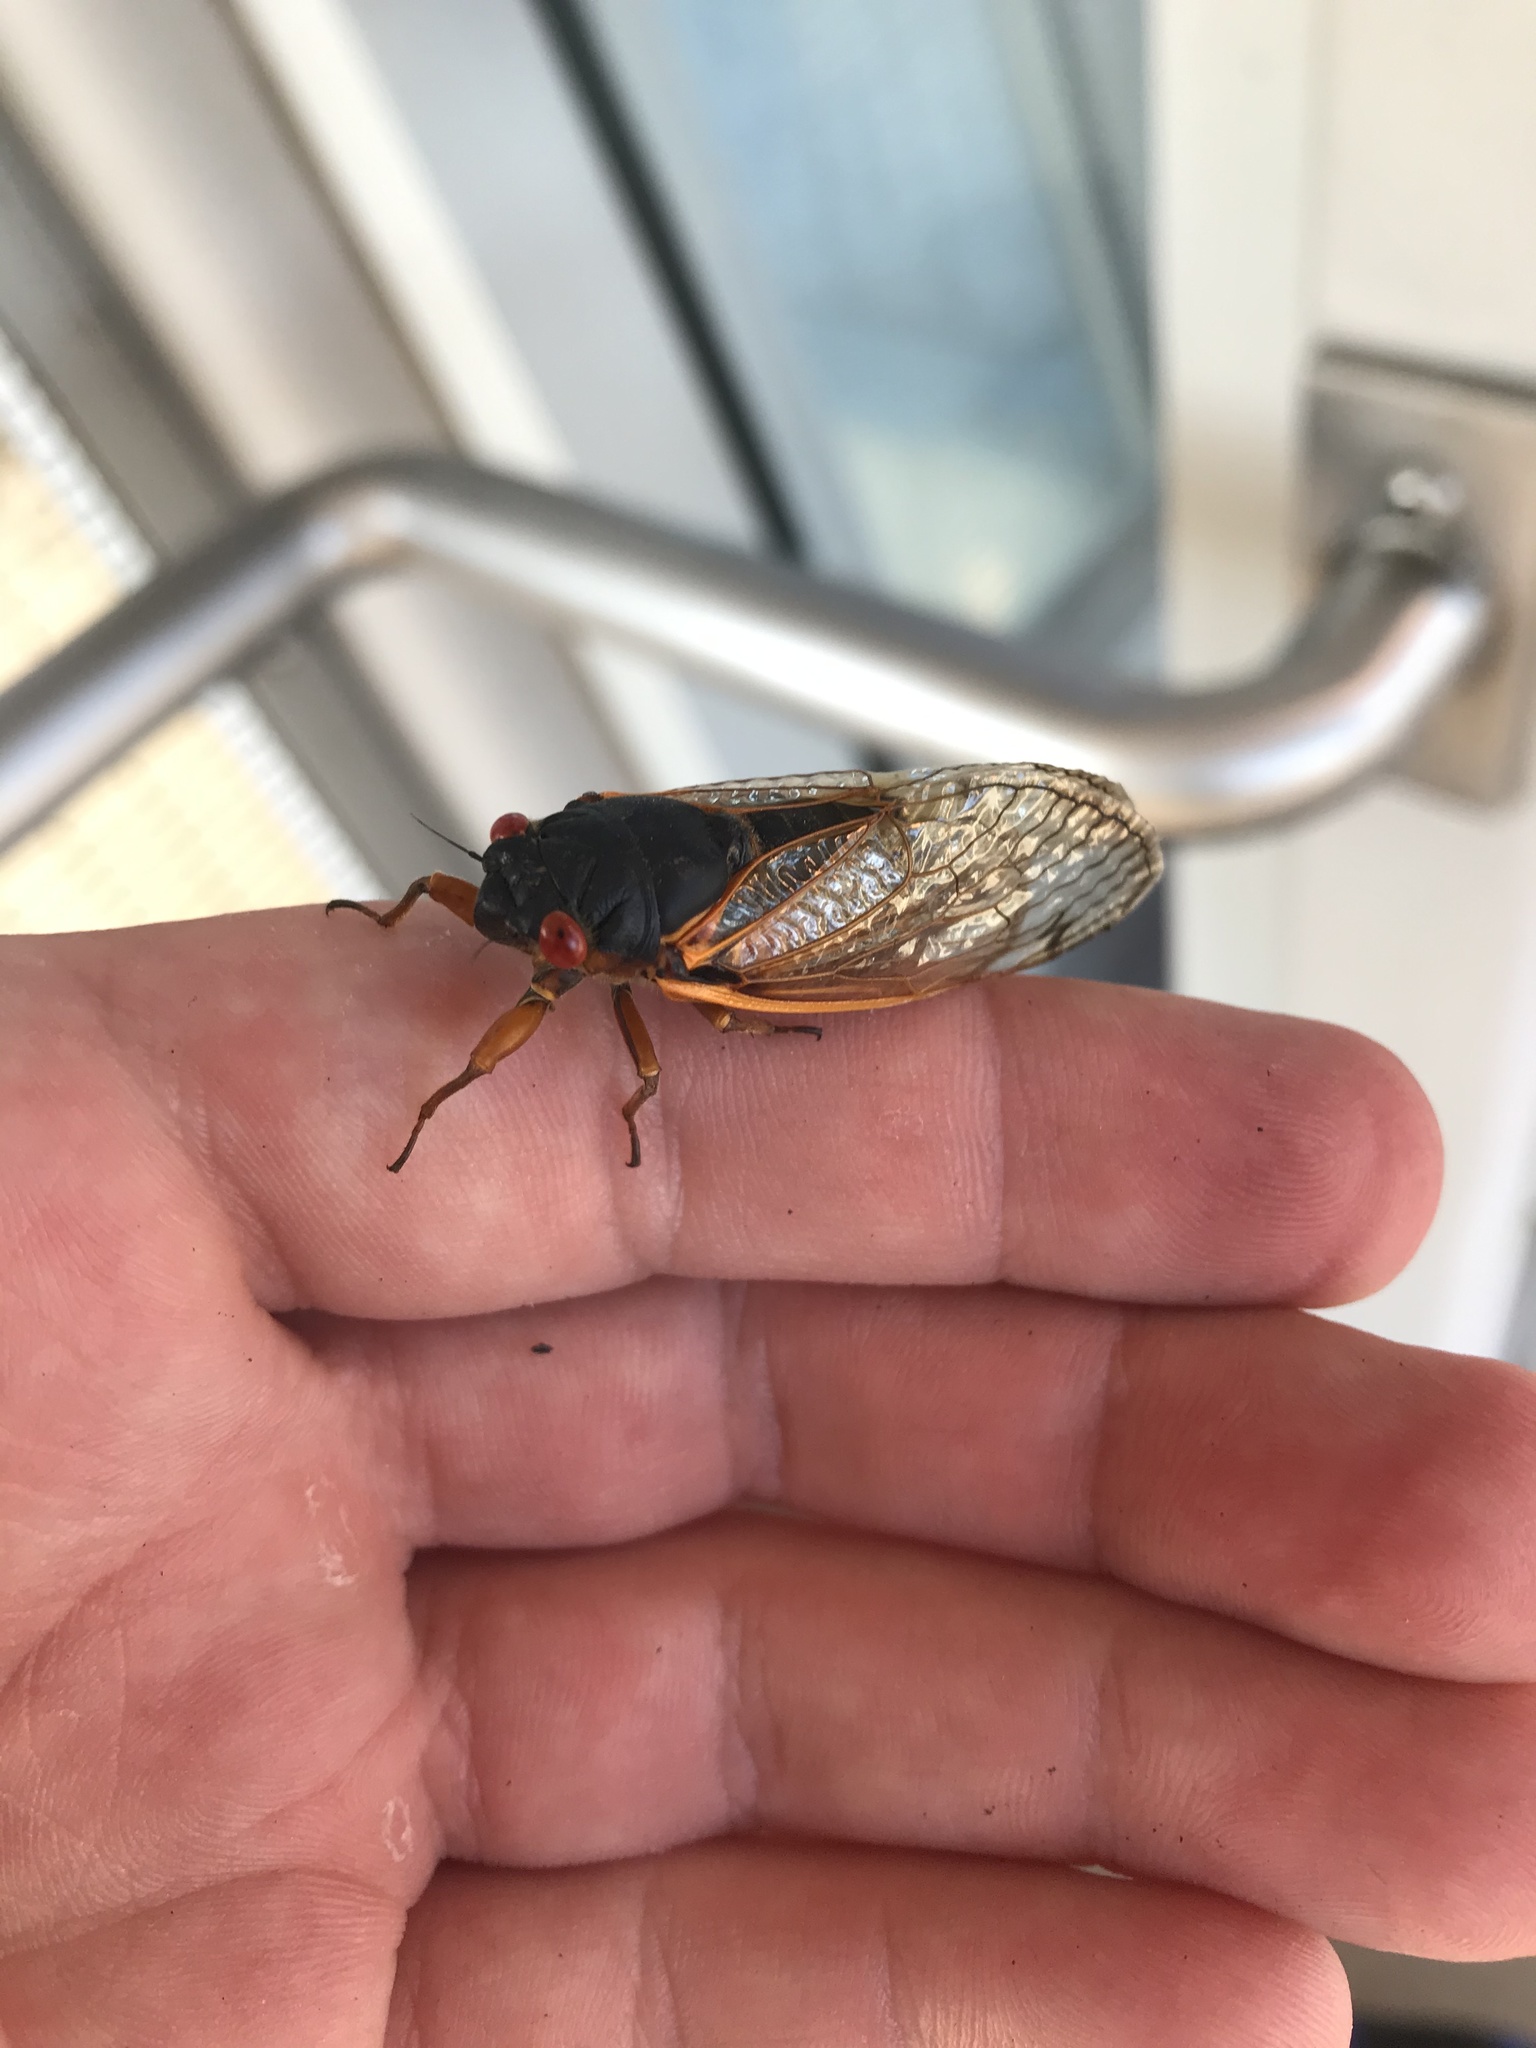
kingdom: Animalia
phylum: Arthropoda
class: Insecta
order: Hemiptera
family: Cicadidae
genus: Magicicada
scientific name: Magicicada septendecim
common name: Periodical cicada
